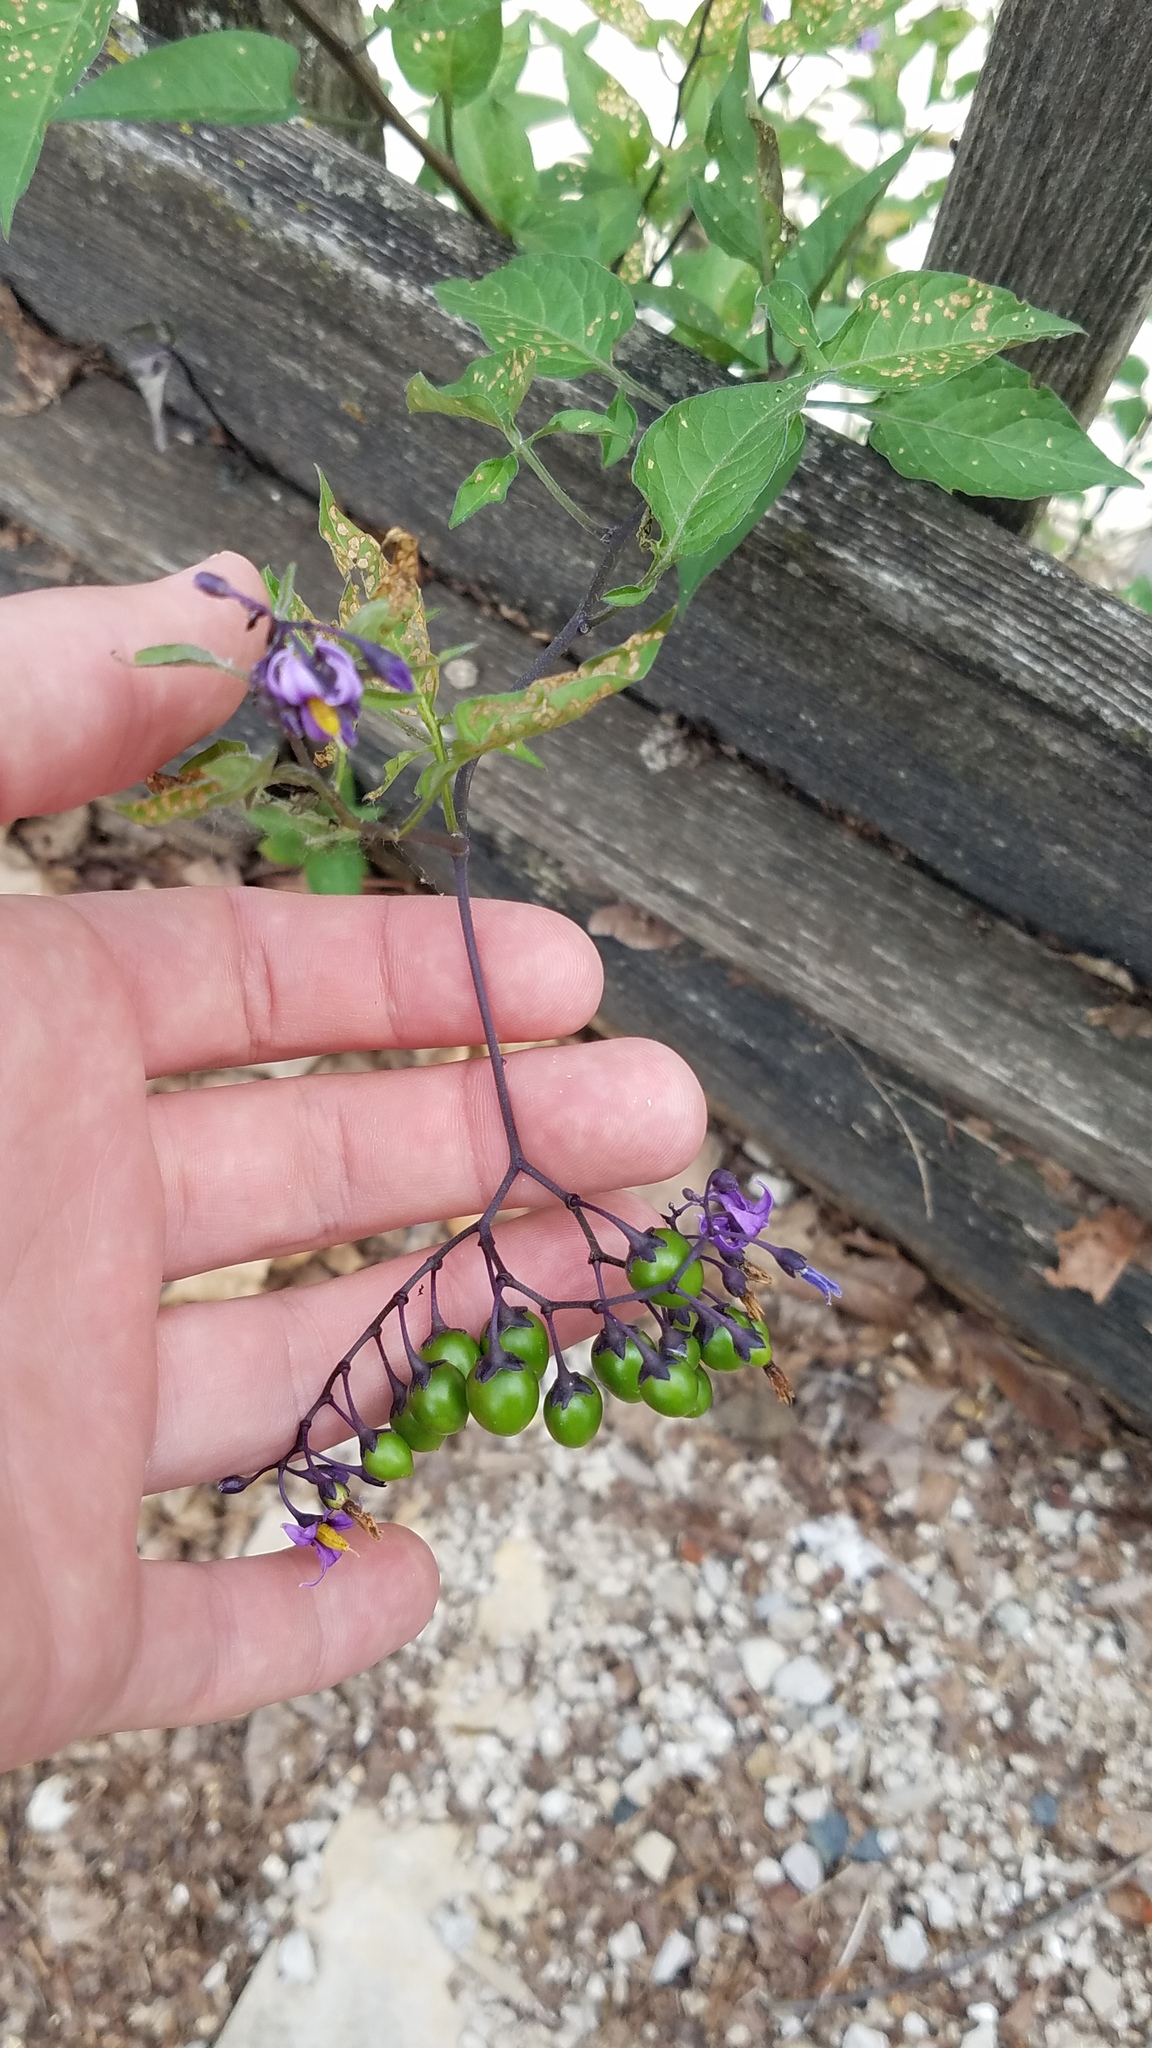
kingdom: Plantae
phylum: Tracheophyta
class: Magnoliopsida
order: Solanales
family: Solanaceae
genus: Solanum
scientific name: Solanum dulcamara
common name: Climbing nightshade
